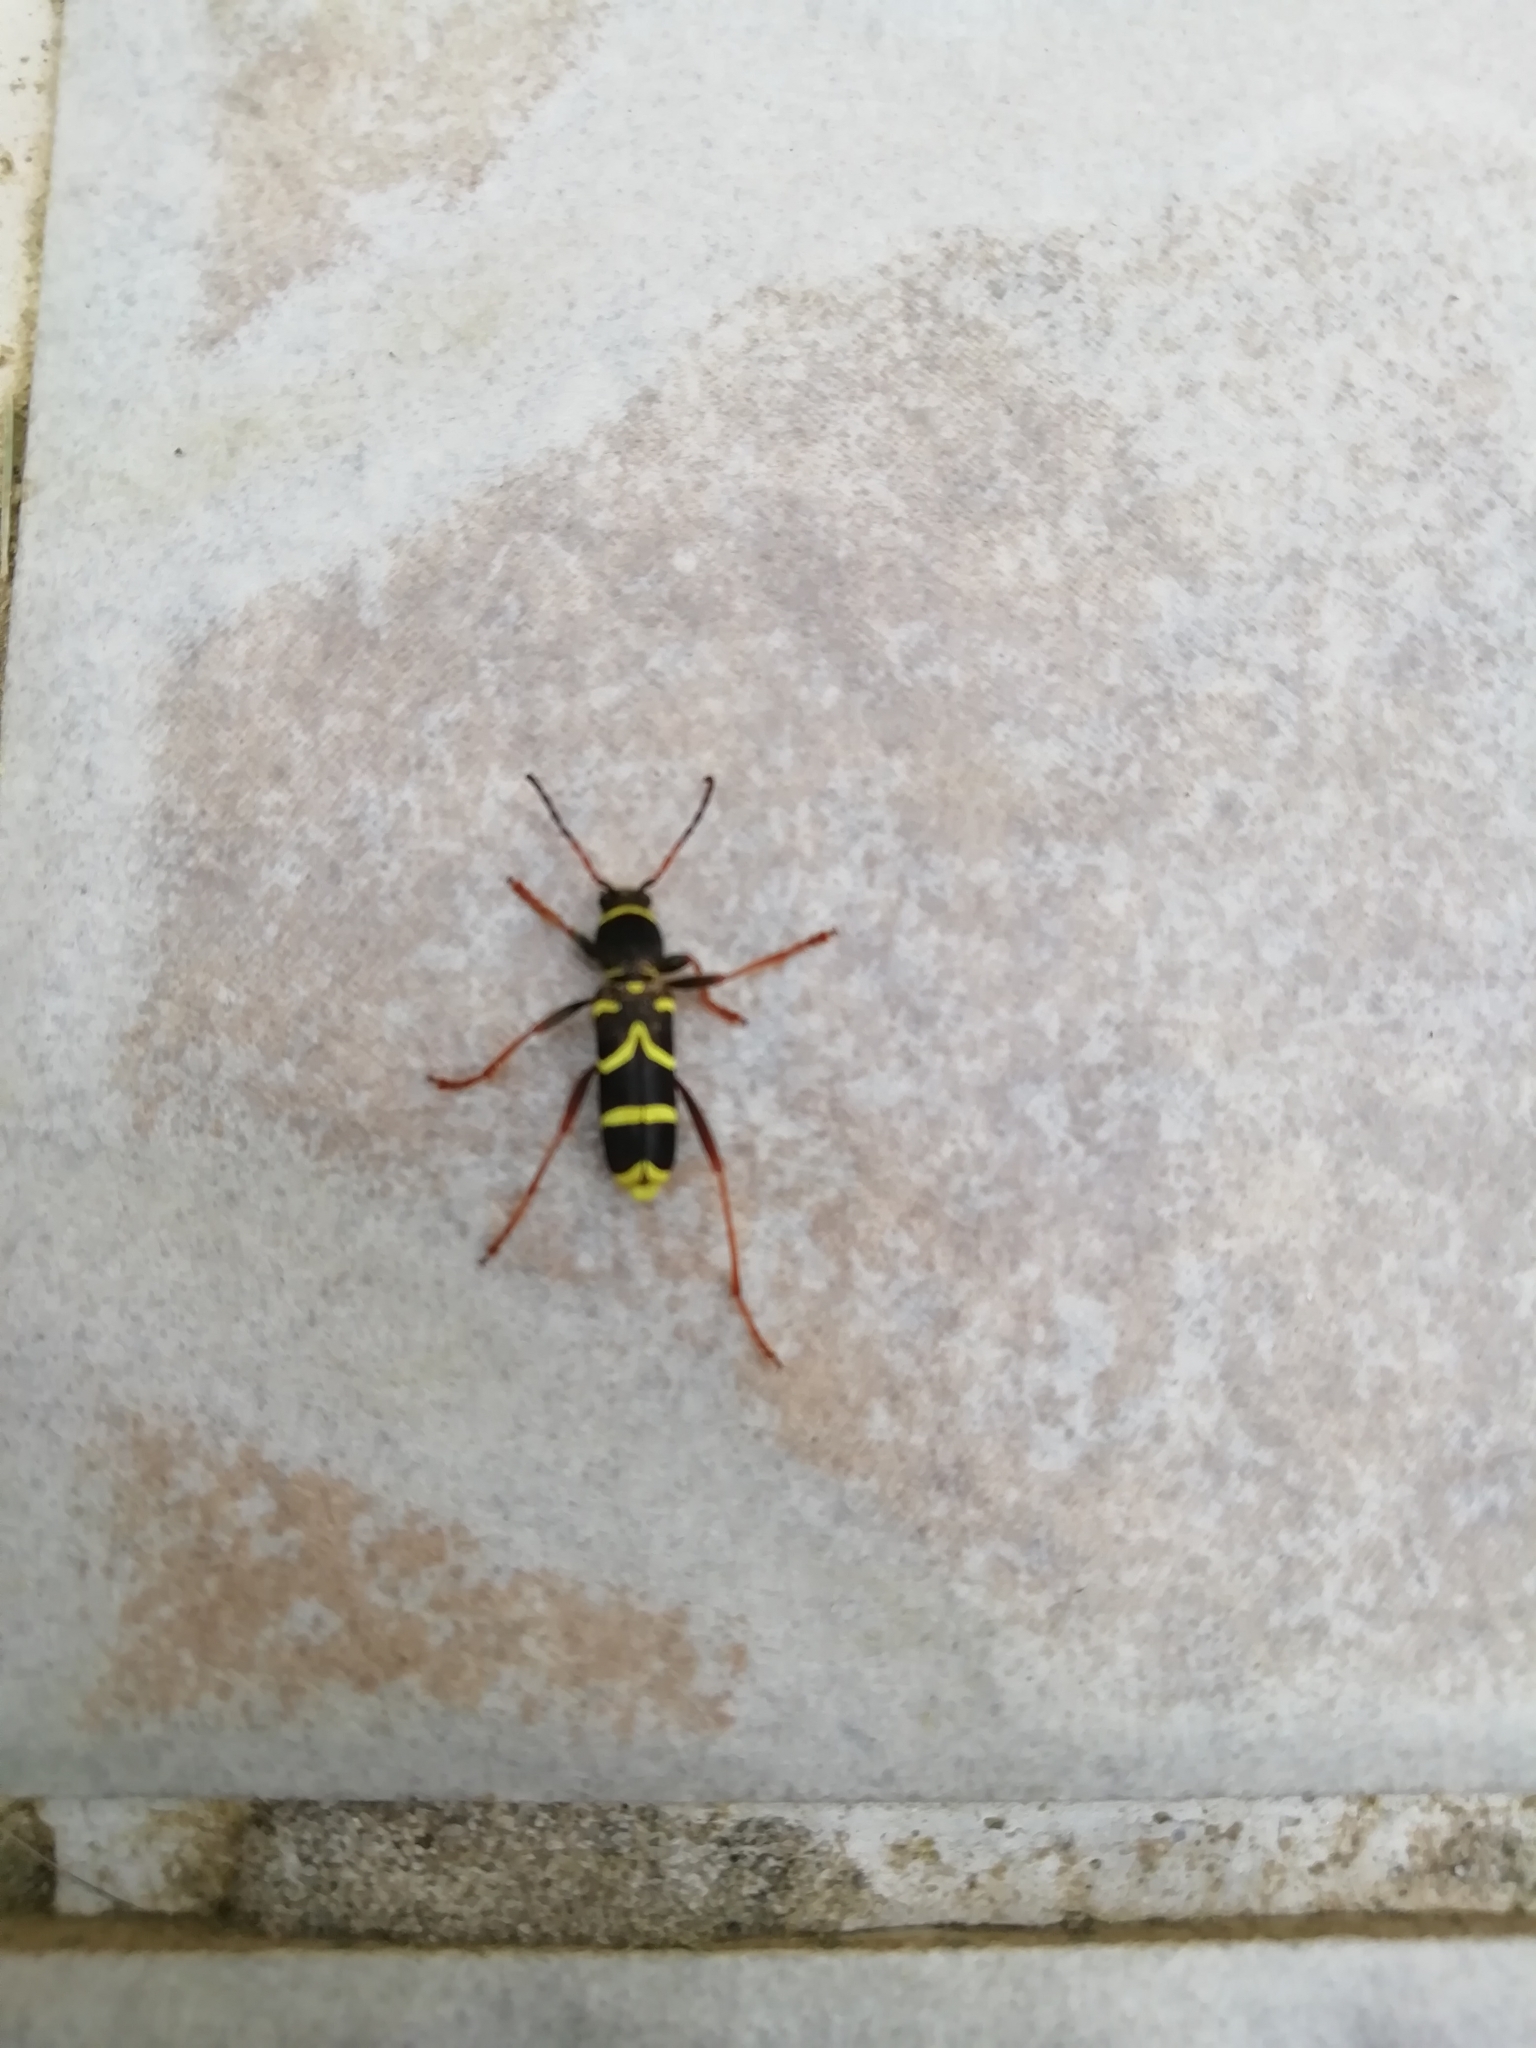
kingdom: Animalia
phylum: Arthropoda
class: Insecta
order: Coleoptera
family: Cerambycidae
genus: Clytus
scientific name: Clytus arietis
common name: Wasp beetle
